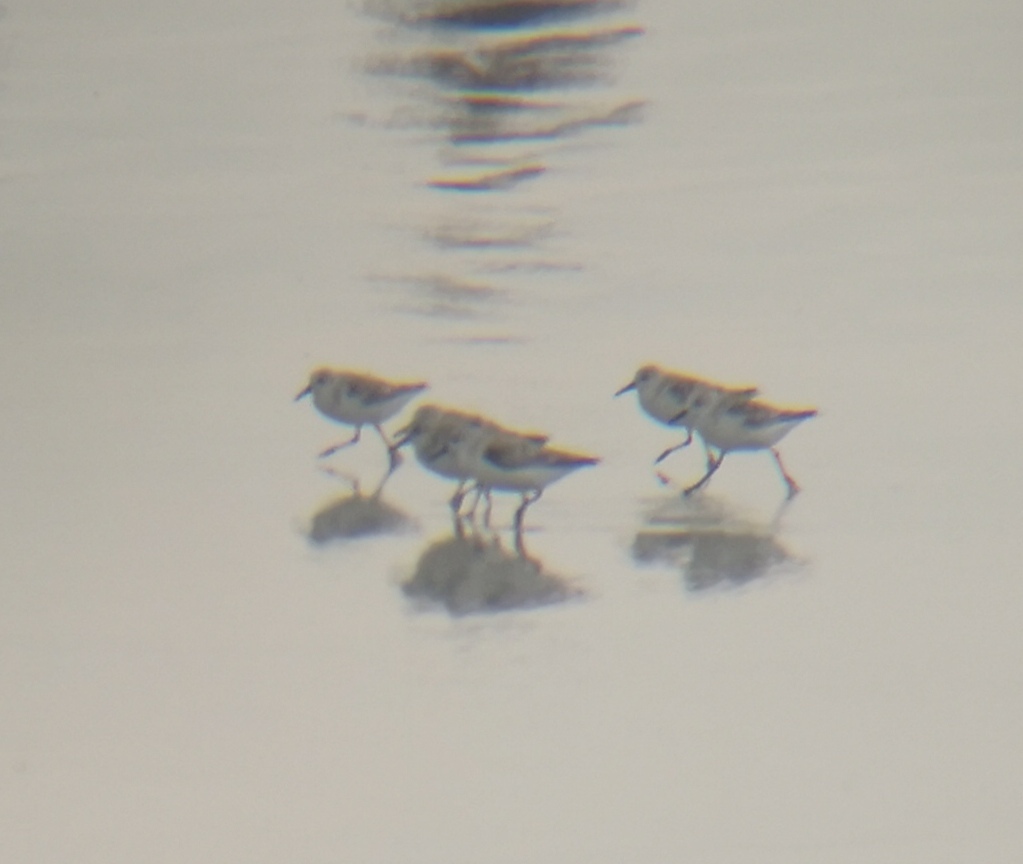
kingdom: Animalia
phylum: Chordata
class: Aves
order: Charadriiformes
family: Scolopacidae
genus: Calidris
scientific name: Calidris alba
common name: Sanderling
